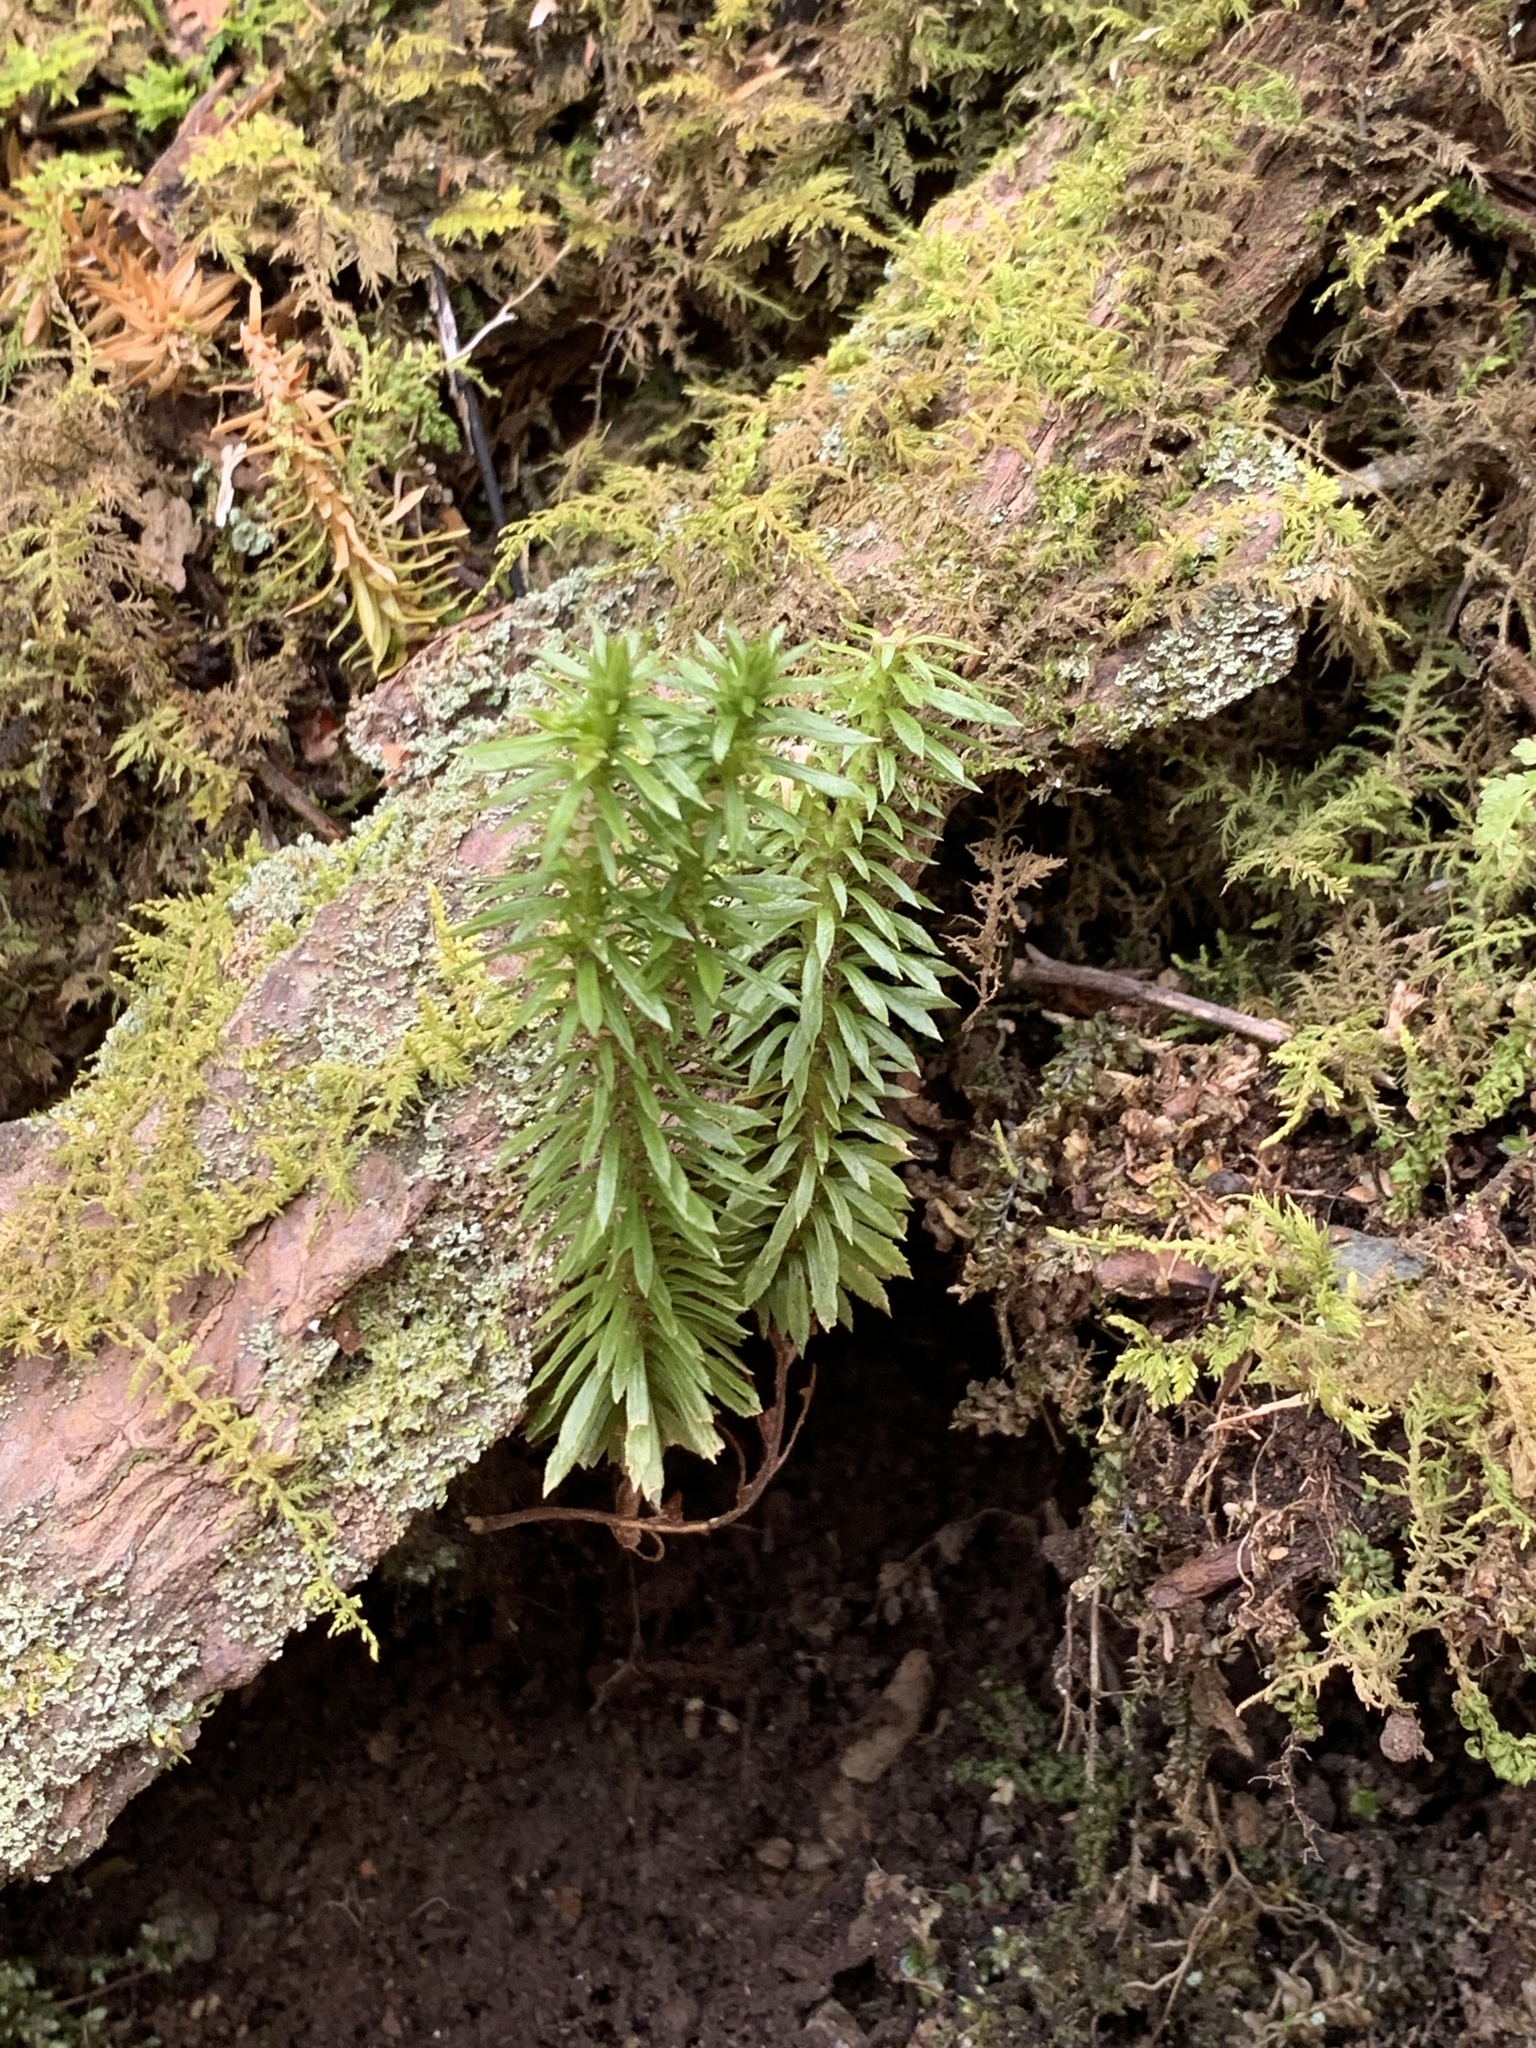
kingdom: Plantae
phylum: Tracheophyta
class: Lycopodiopsida
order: Lycopodiales
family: Lycopodiaceae
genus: Huperzia
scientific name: Huperzia lucidula
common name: Shining clubmoss
